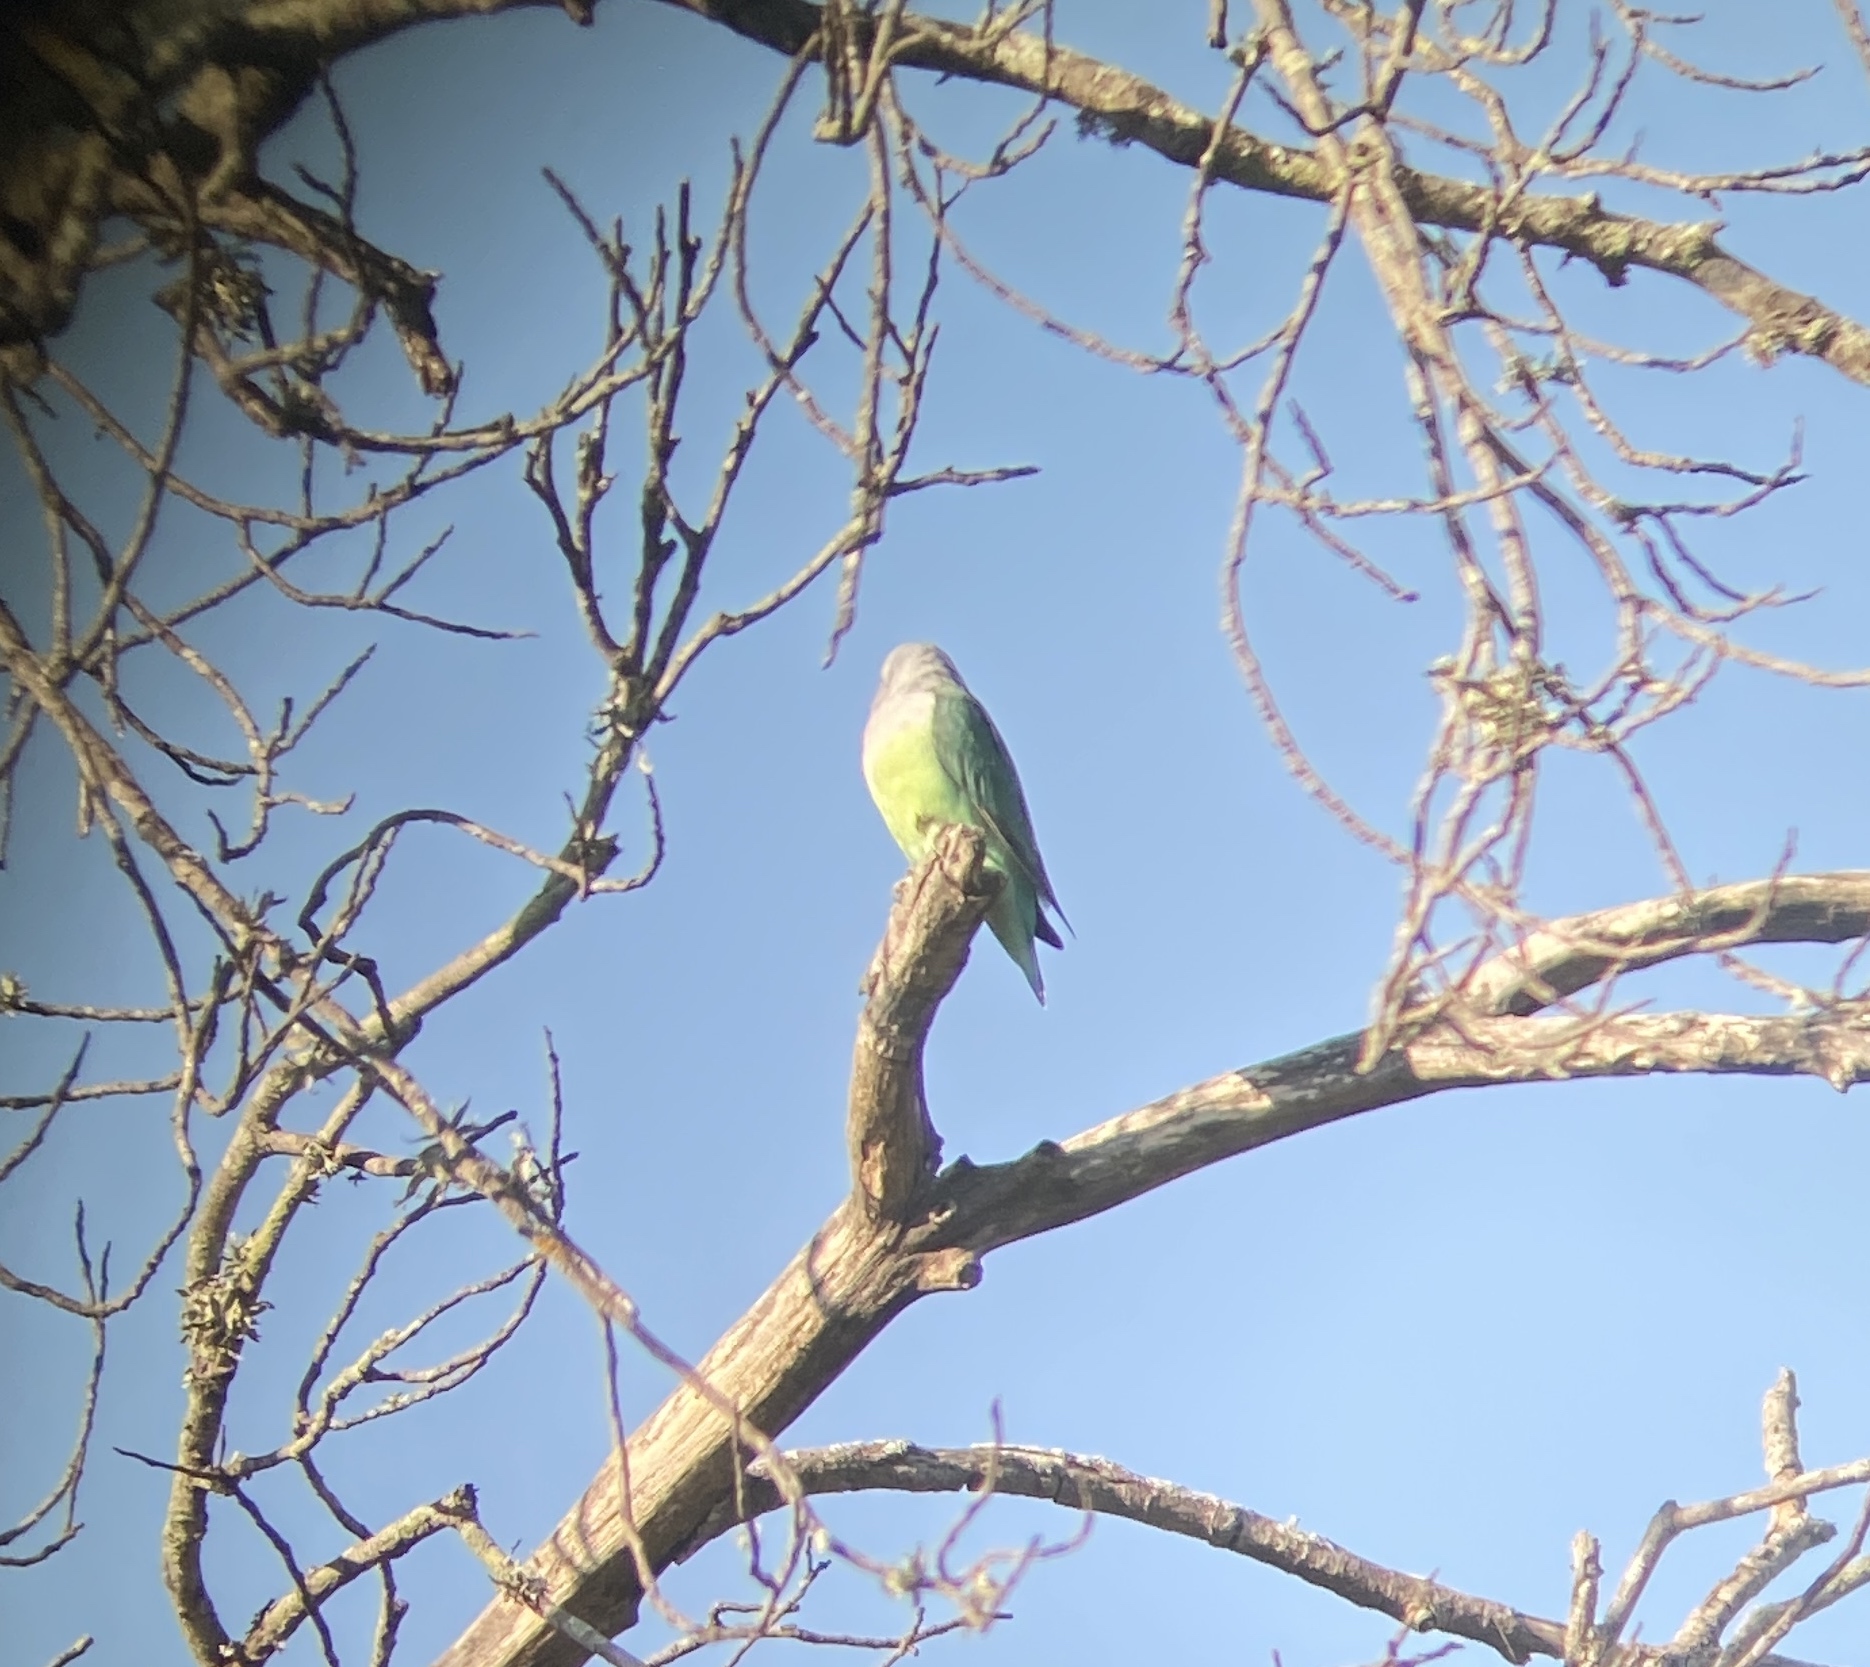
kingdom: Animalia
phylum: Chordata
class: Aves
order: Psittaciformes
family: Psittacidae
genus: Agapornis
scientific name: Agapornis canus
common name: Grey-headed lovebird
